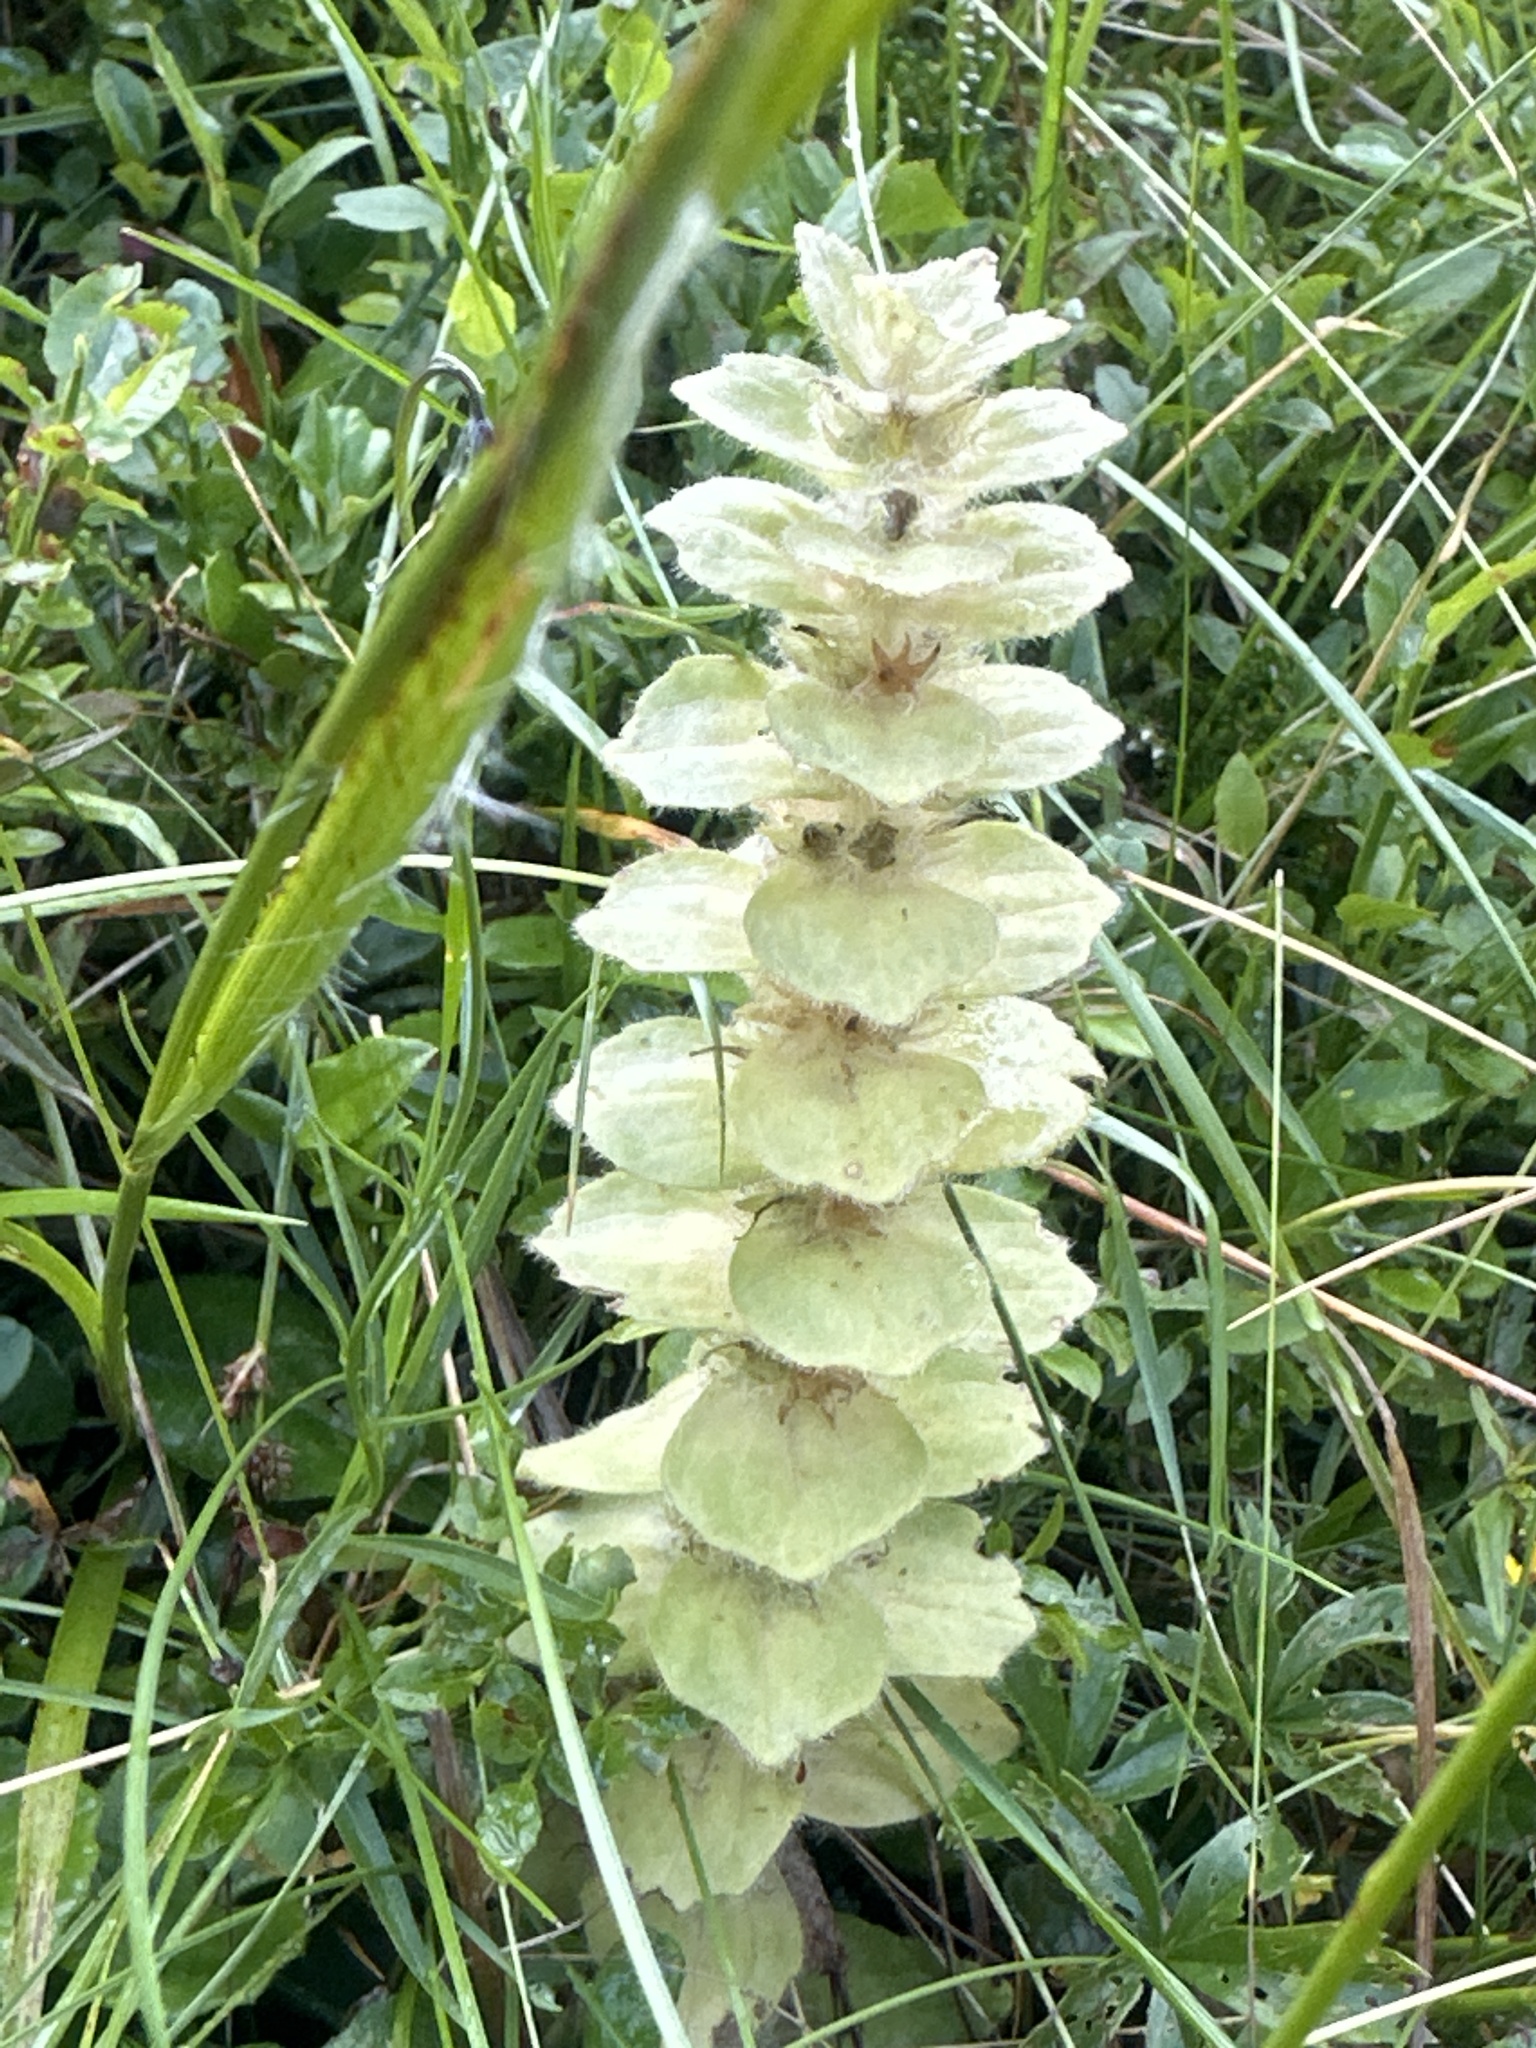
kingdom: Plantae
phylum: Tracheophyta
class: Magnoliopsida
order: Lamiales
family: Lamiaceae
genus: Ajuga
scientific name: Ajuga pyramidalis
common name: Pyramid bugle
